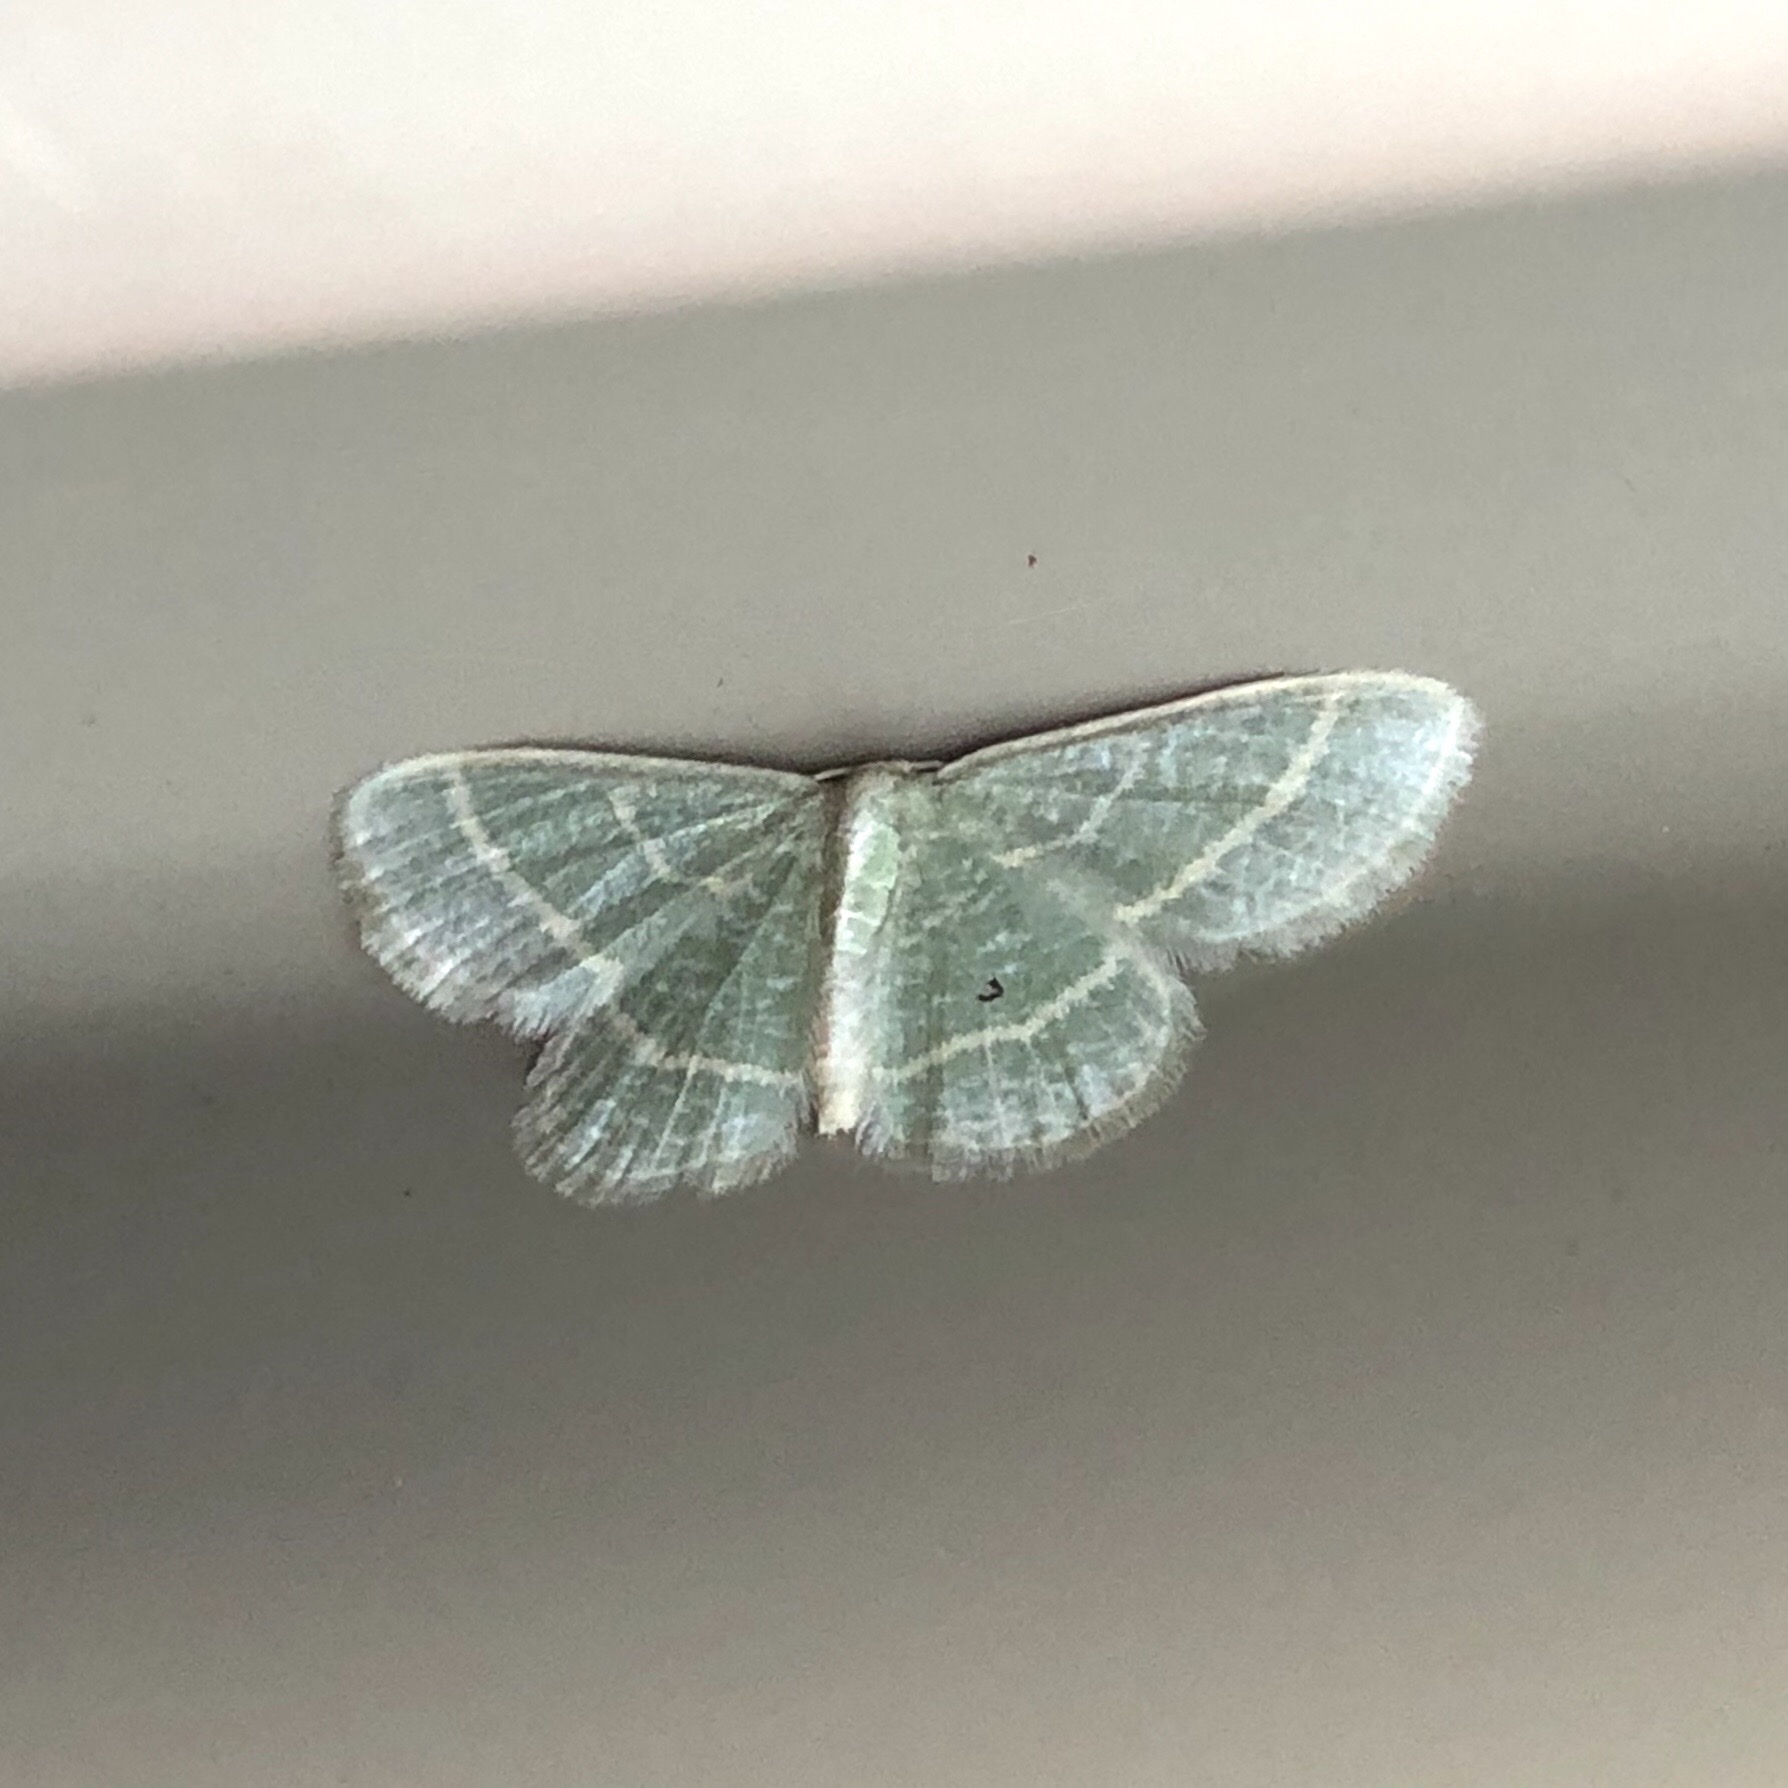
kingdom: Animalia
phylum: Arthropoda
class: Insecta
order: Lepidoptera
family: Geometridae
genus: Chlorochlamys
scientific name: Chlorochlamys chloroleucaria
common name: Blackberry looper
